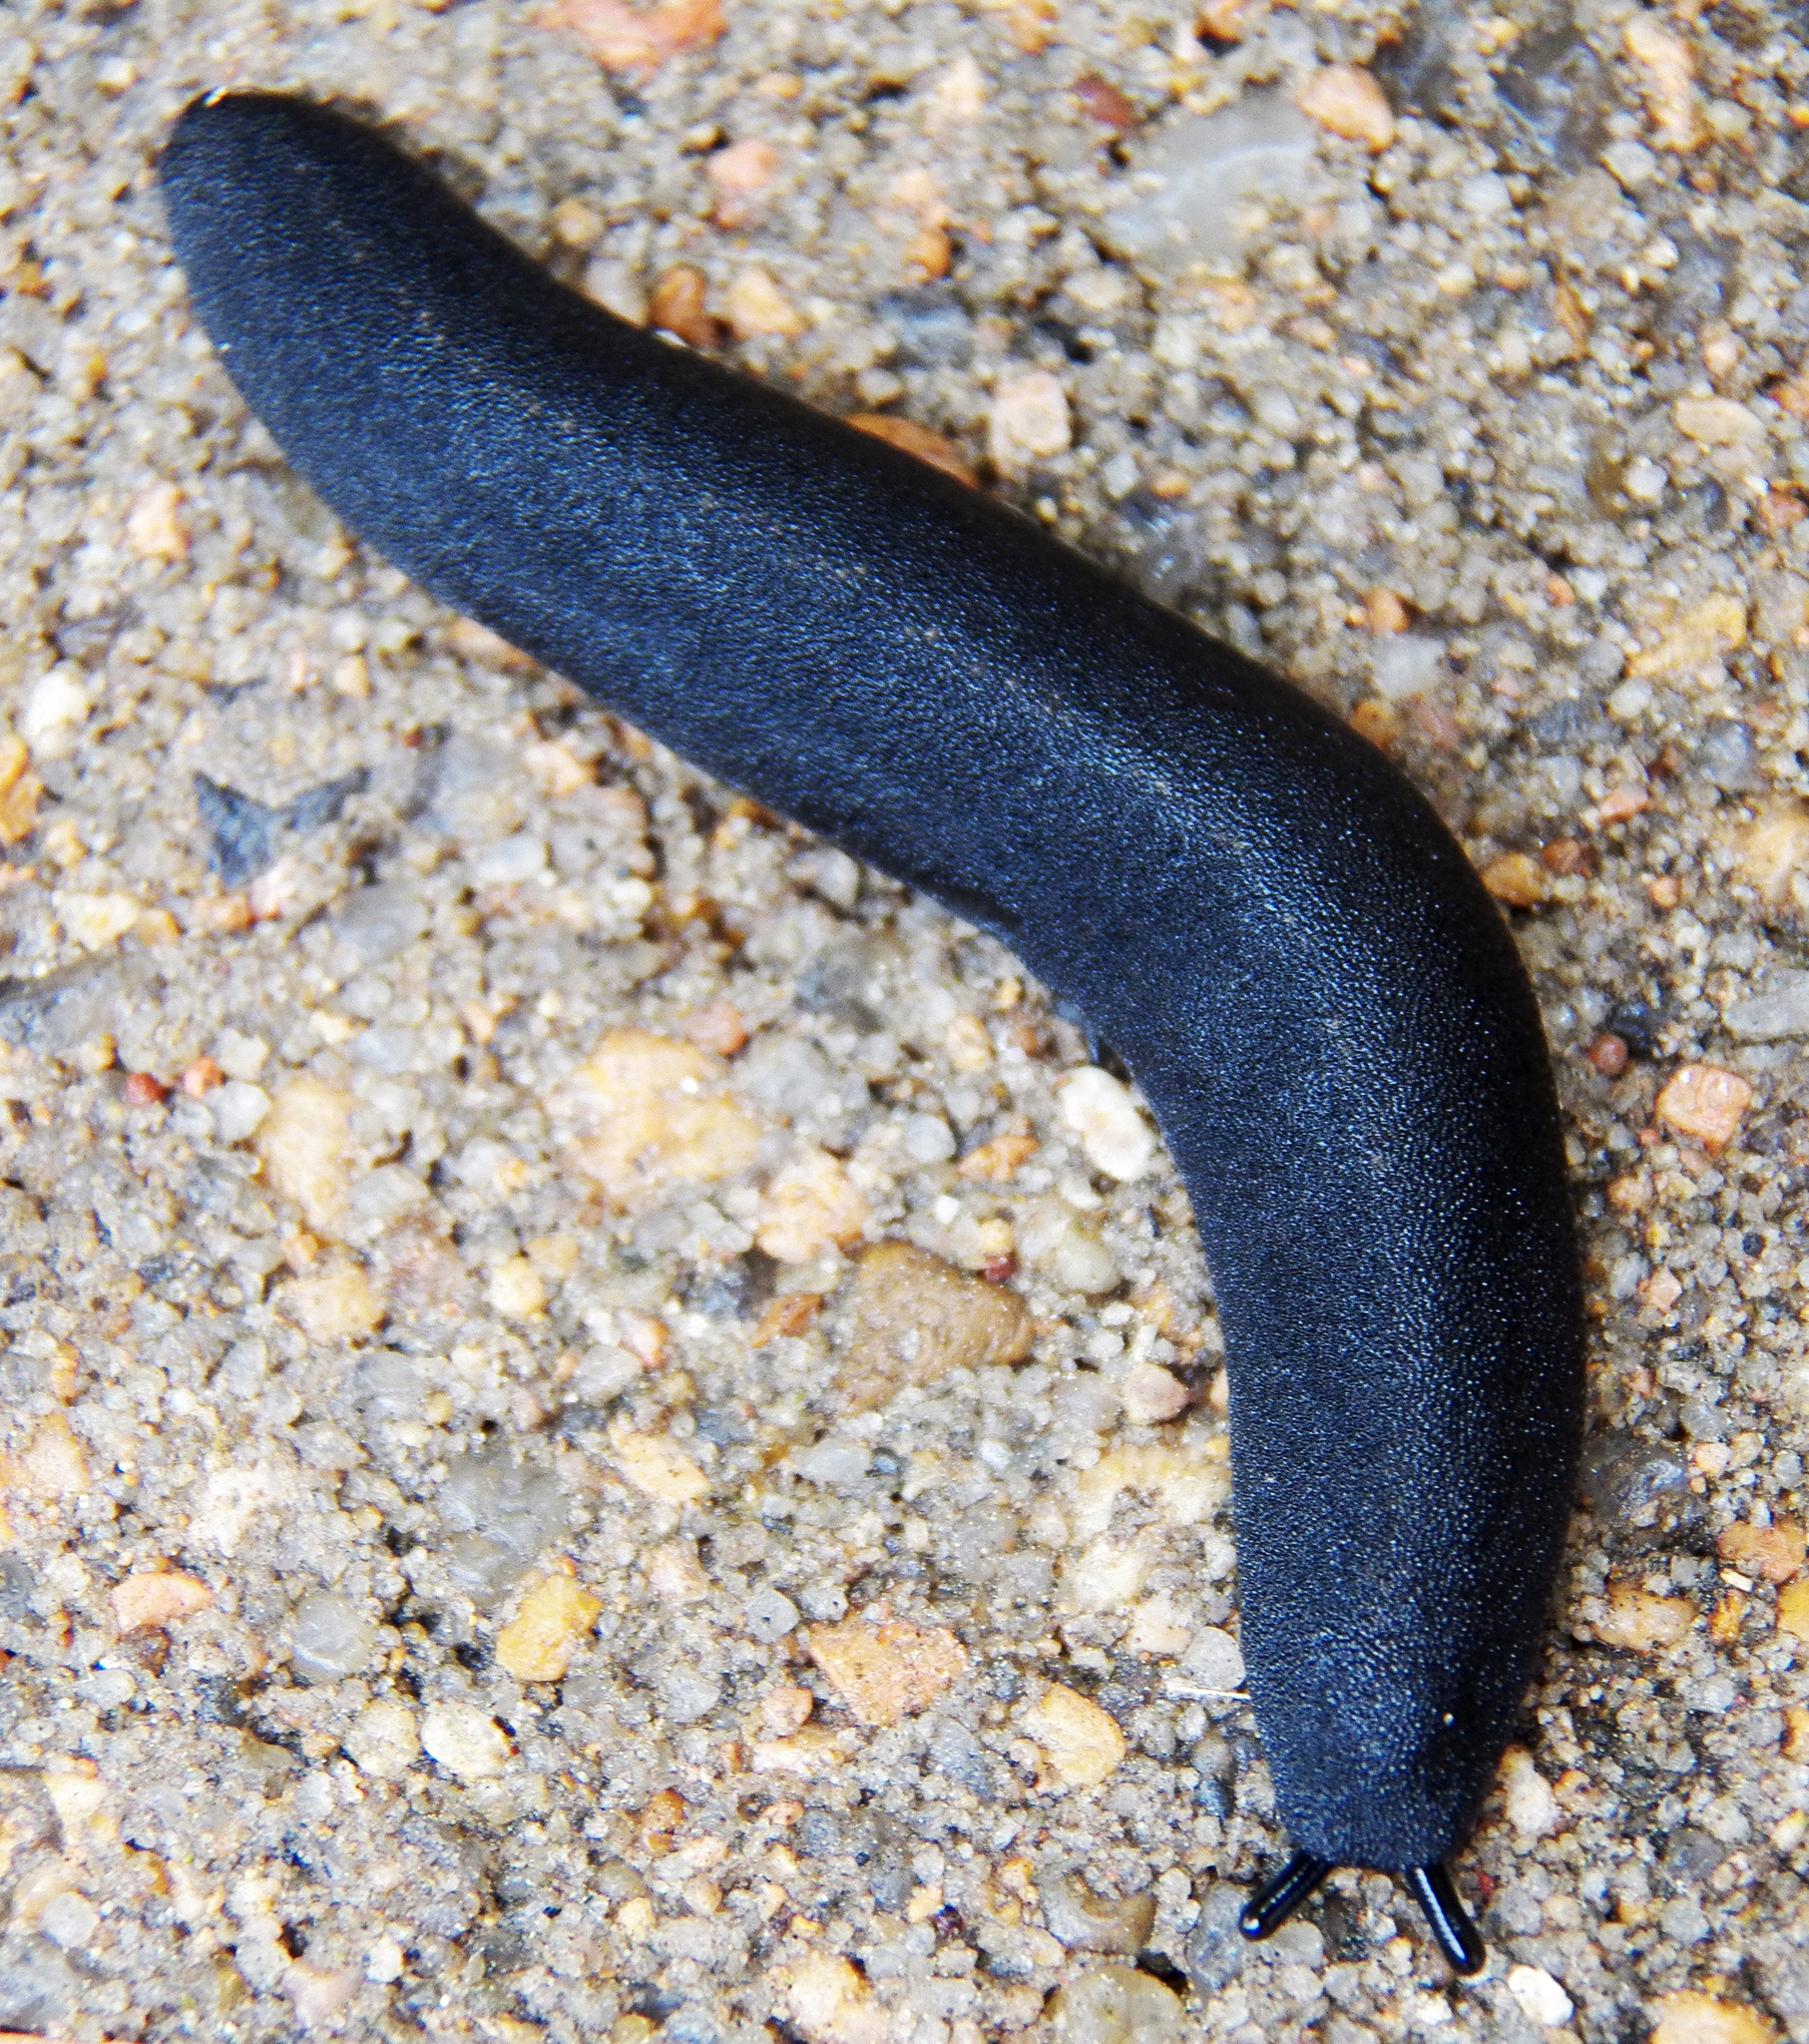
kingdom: Animalia
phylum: Mollusca
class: Gastropoda
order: Systellommatophora
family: Veronicellidae
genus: Belocaulus
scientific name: Belocaulus angustipes
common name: Black velvet leatherleaf slug
